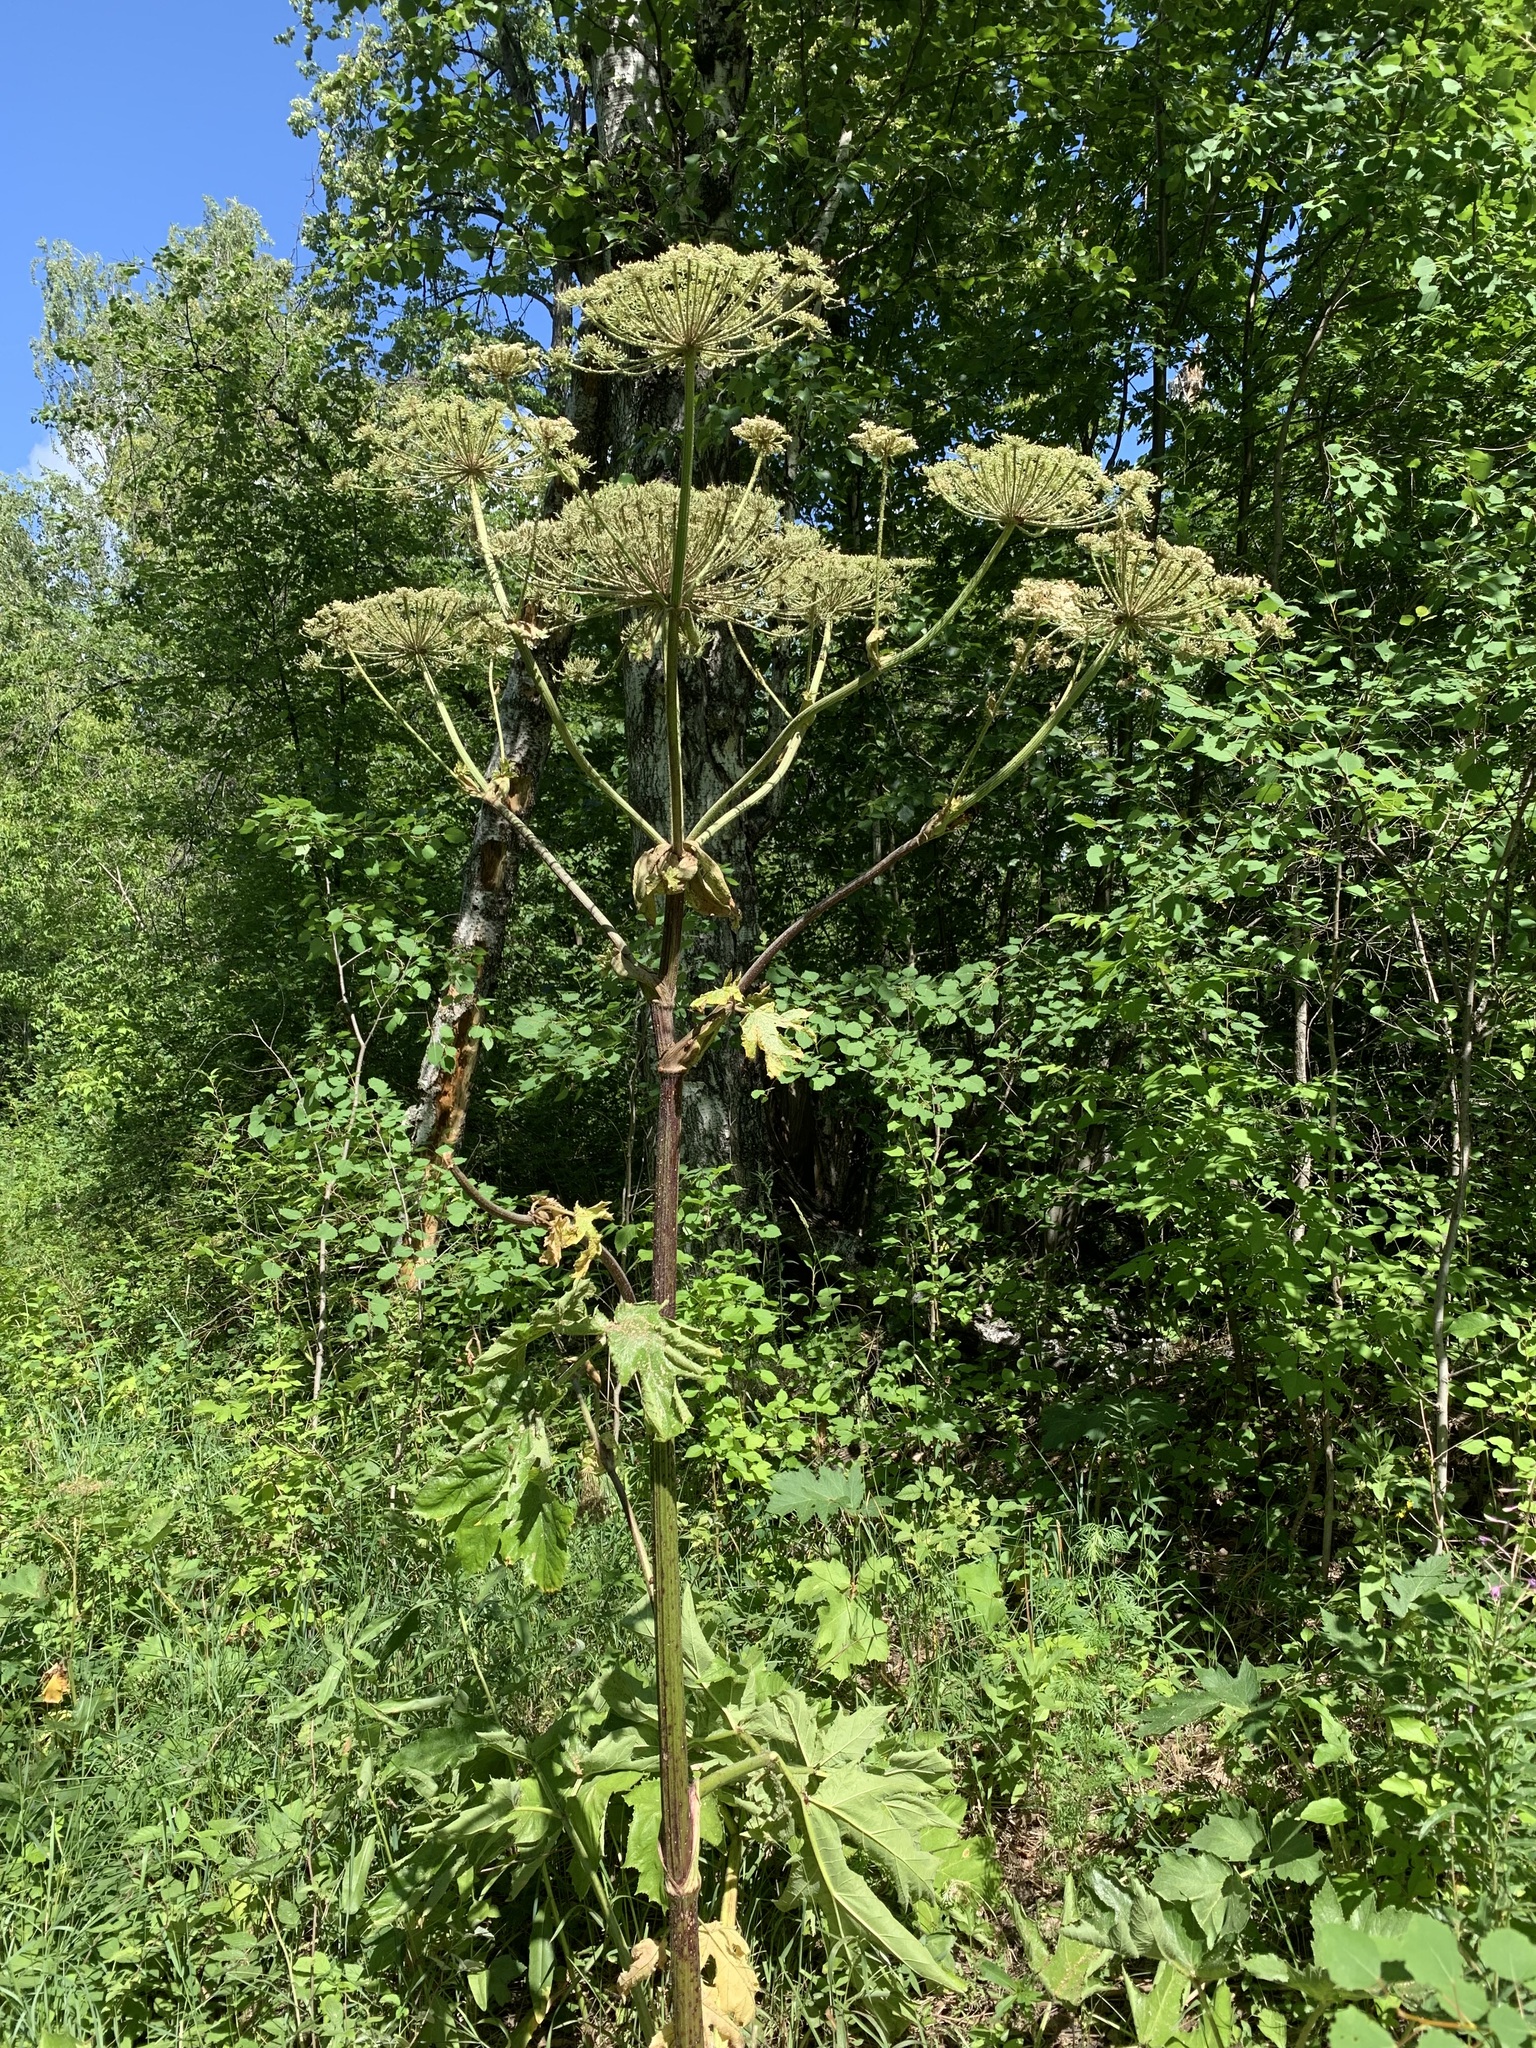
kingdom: Plantae
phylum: Tracheophyta
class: Magnoliopsida
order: Apiales
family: Apiaceae
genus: Heracleum
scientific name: Heracleum sosnowskyi
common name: Sosnowsky's hogweed
